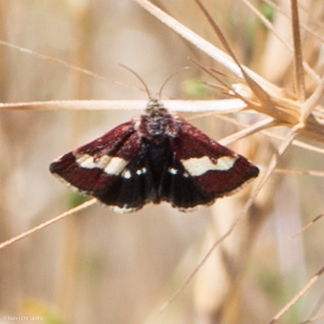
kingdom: Animalia
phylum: Arthropoda
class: Insecta
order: Lepidoptera
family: Noctuidae
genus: Microhelia
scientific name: Microhelia angelica
